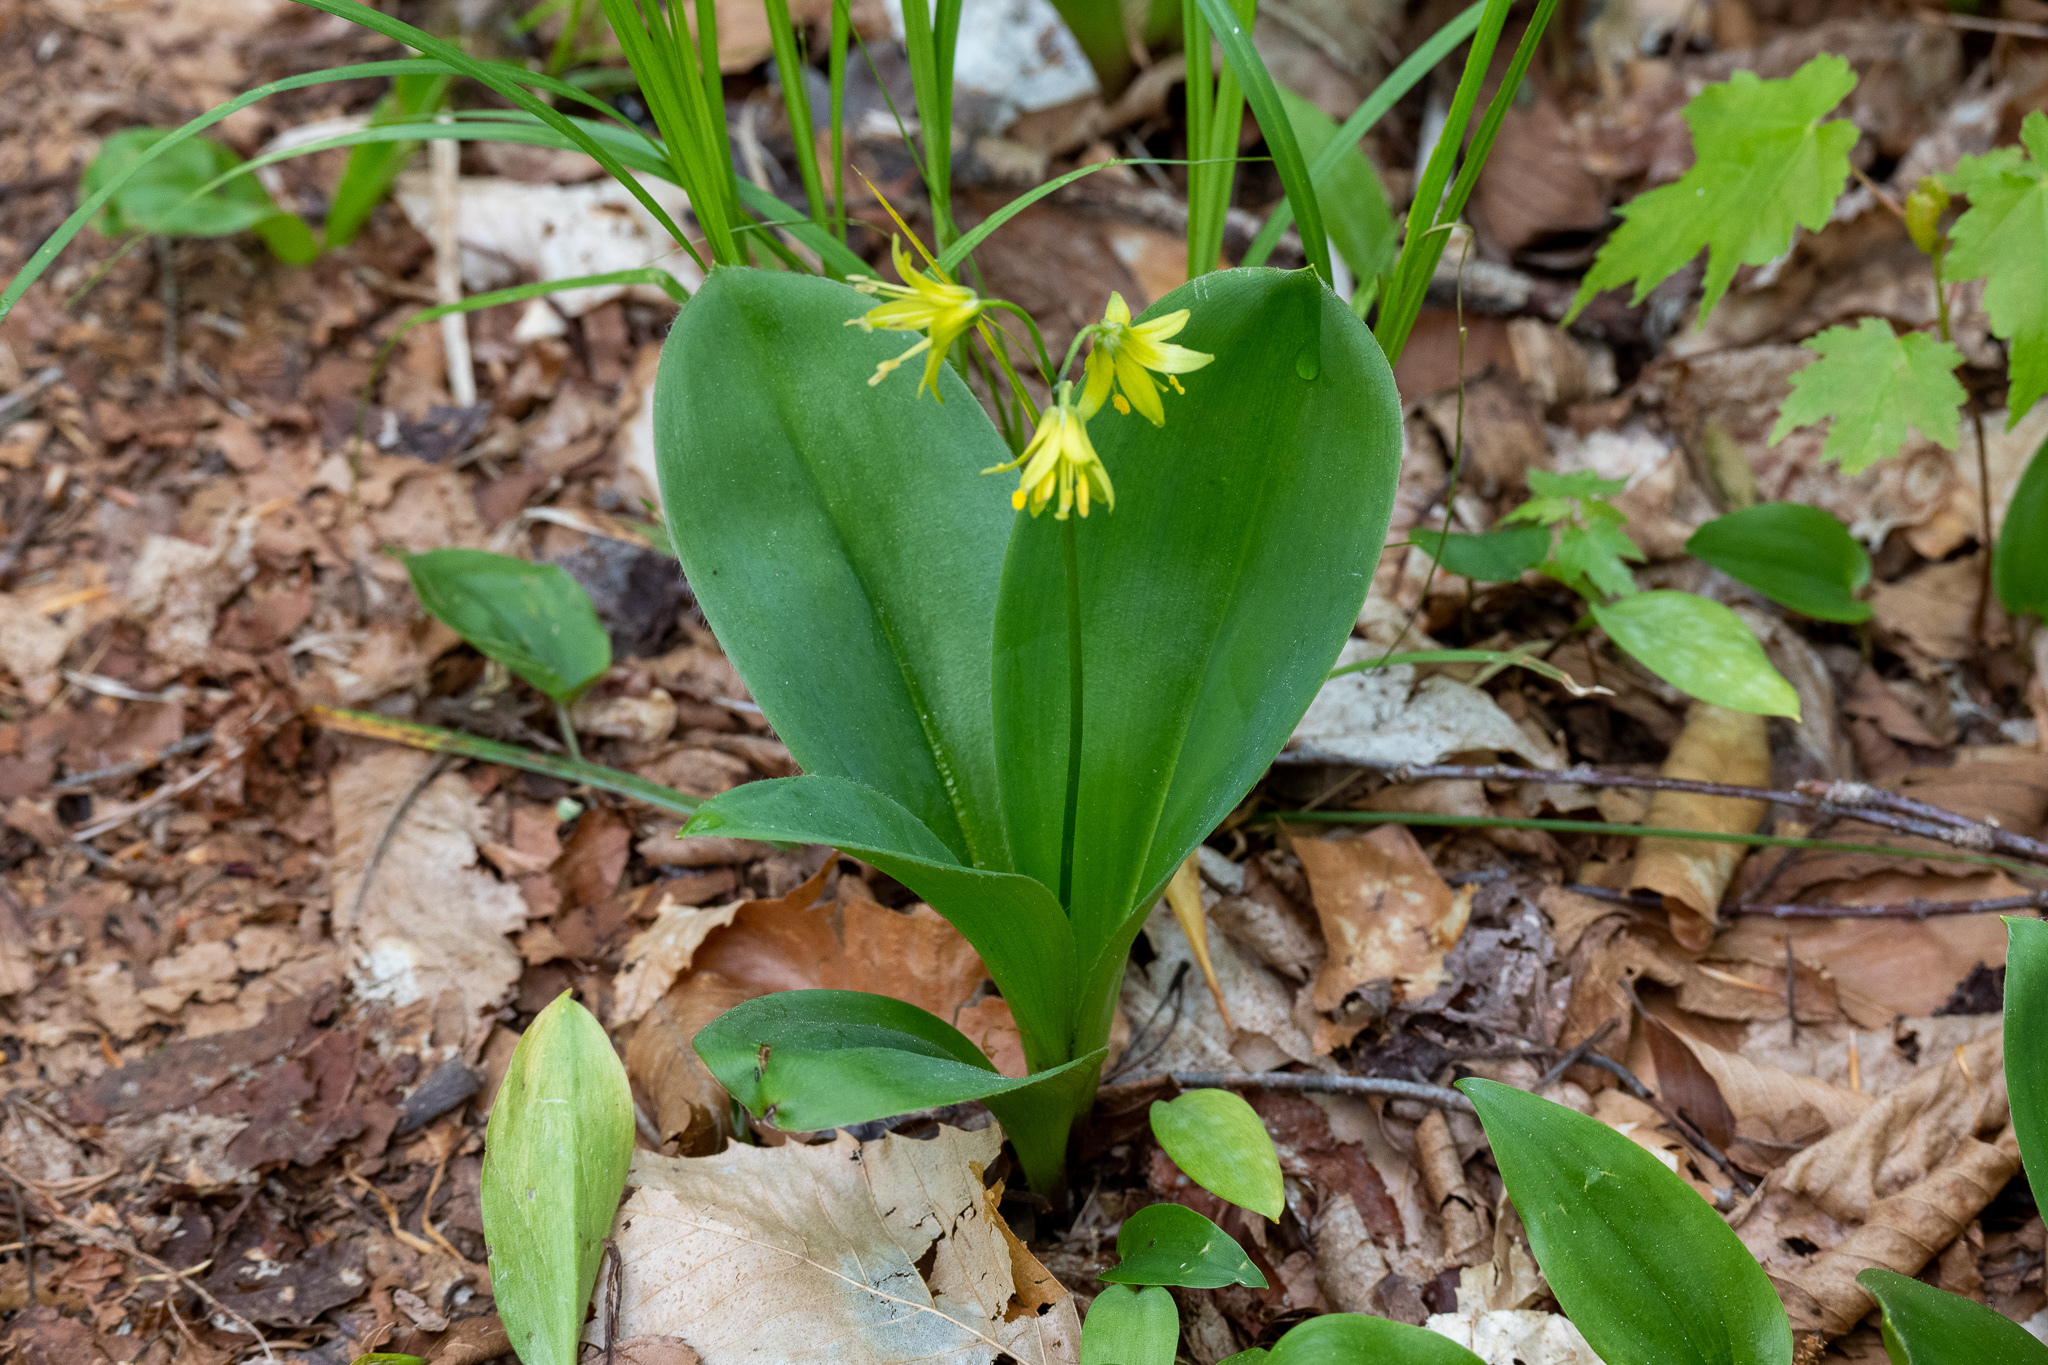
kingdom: Plantae
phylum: Tracheophyta
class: Liliopsida
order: Liliales
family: Liliaceae
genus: Clintonia
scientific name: Clintonia borealis
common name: Yellow clintonia
